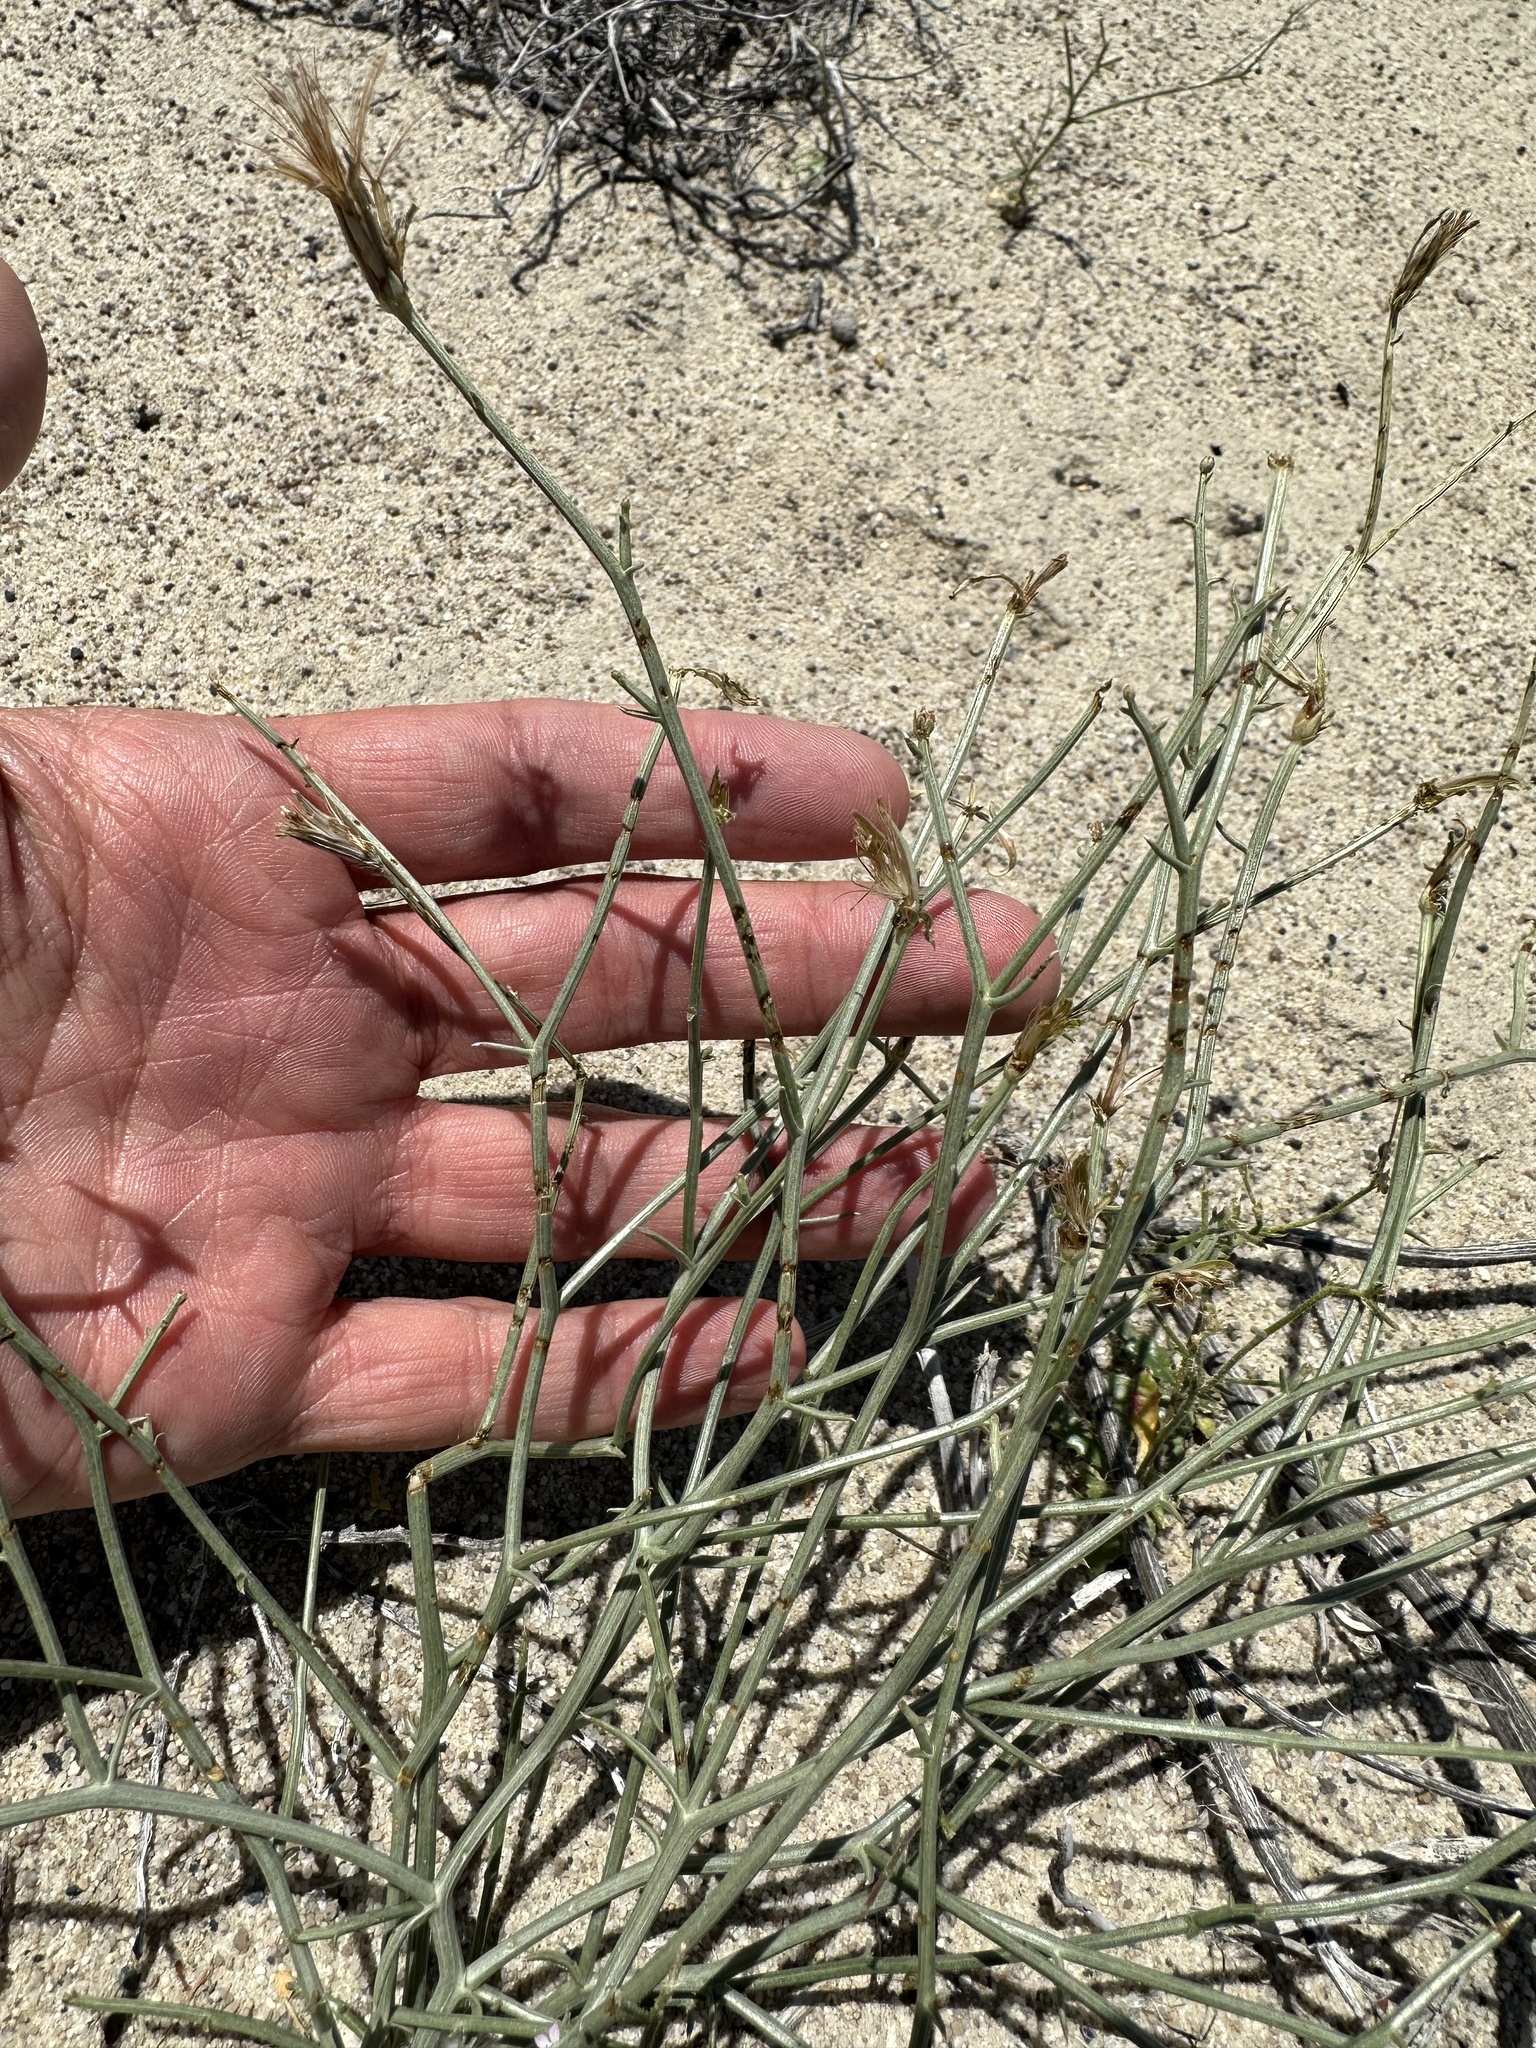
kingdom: Plantae
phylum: Tracheophyta
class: Magnoliopsida
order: Asterales
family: Asteraceae
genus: Stephanomeria
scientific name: Stephanomeria pauciflora
